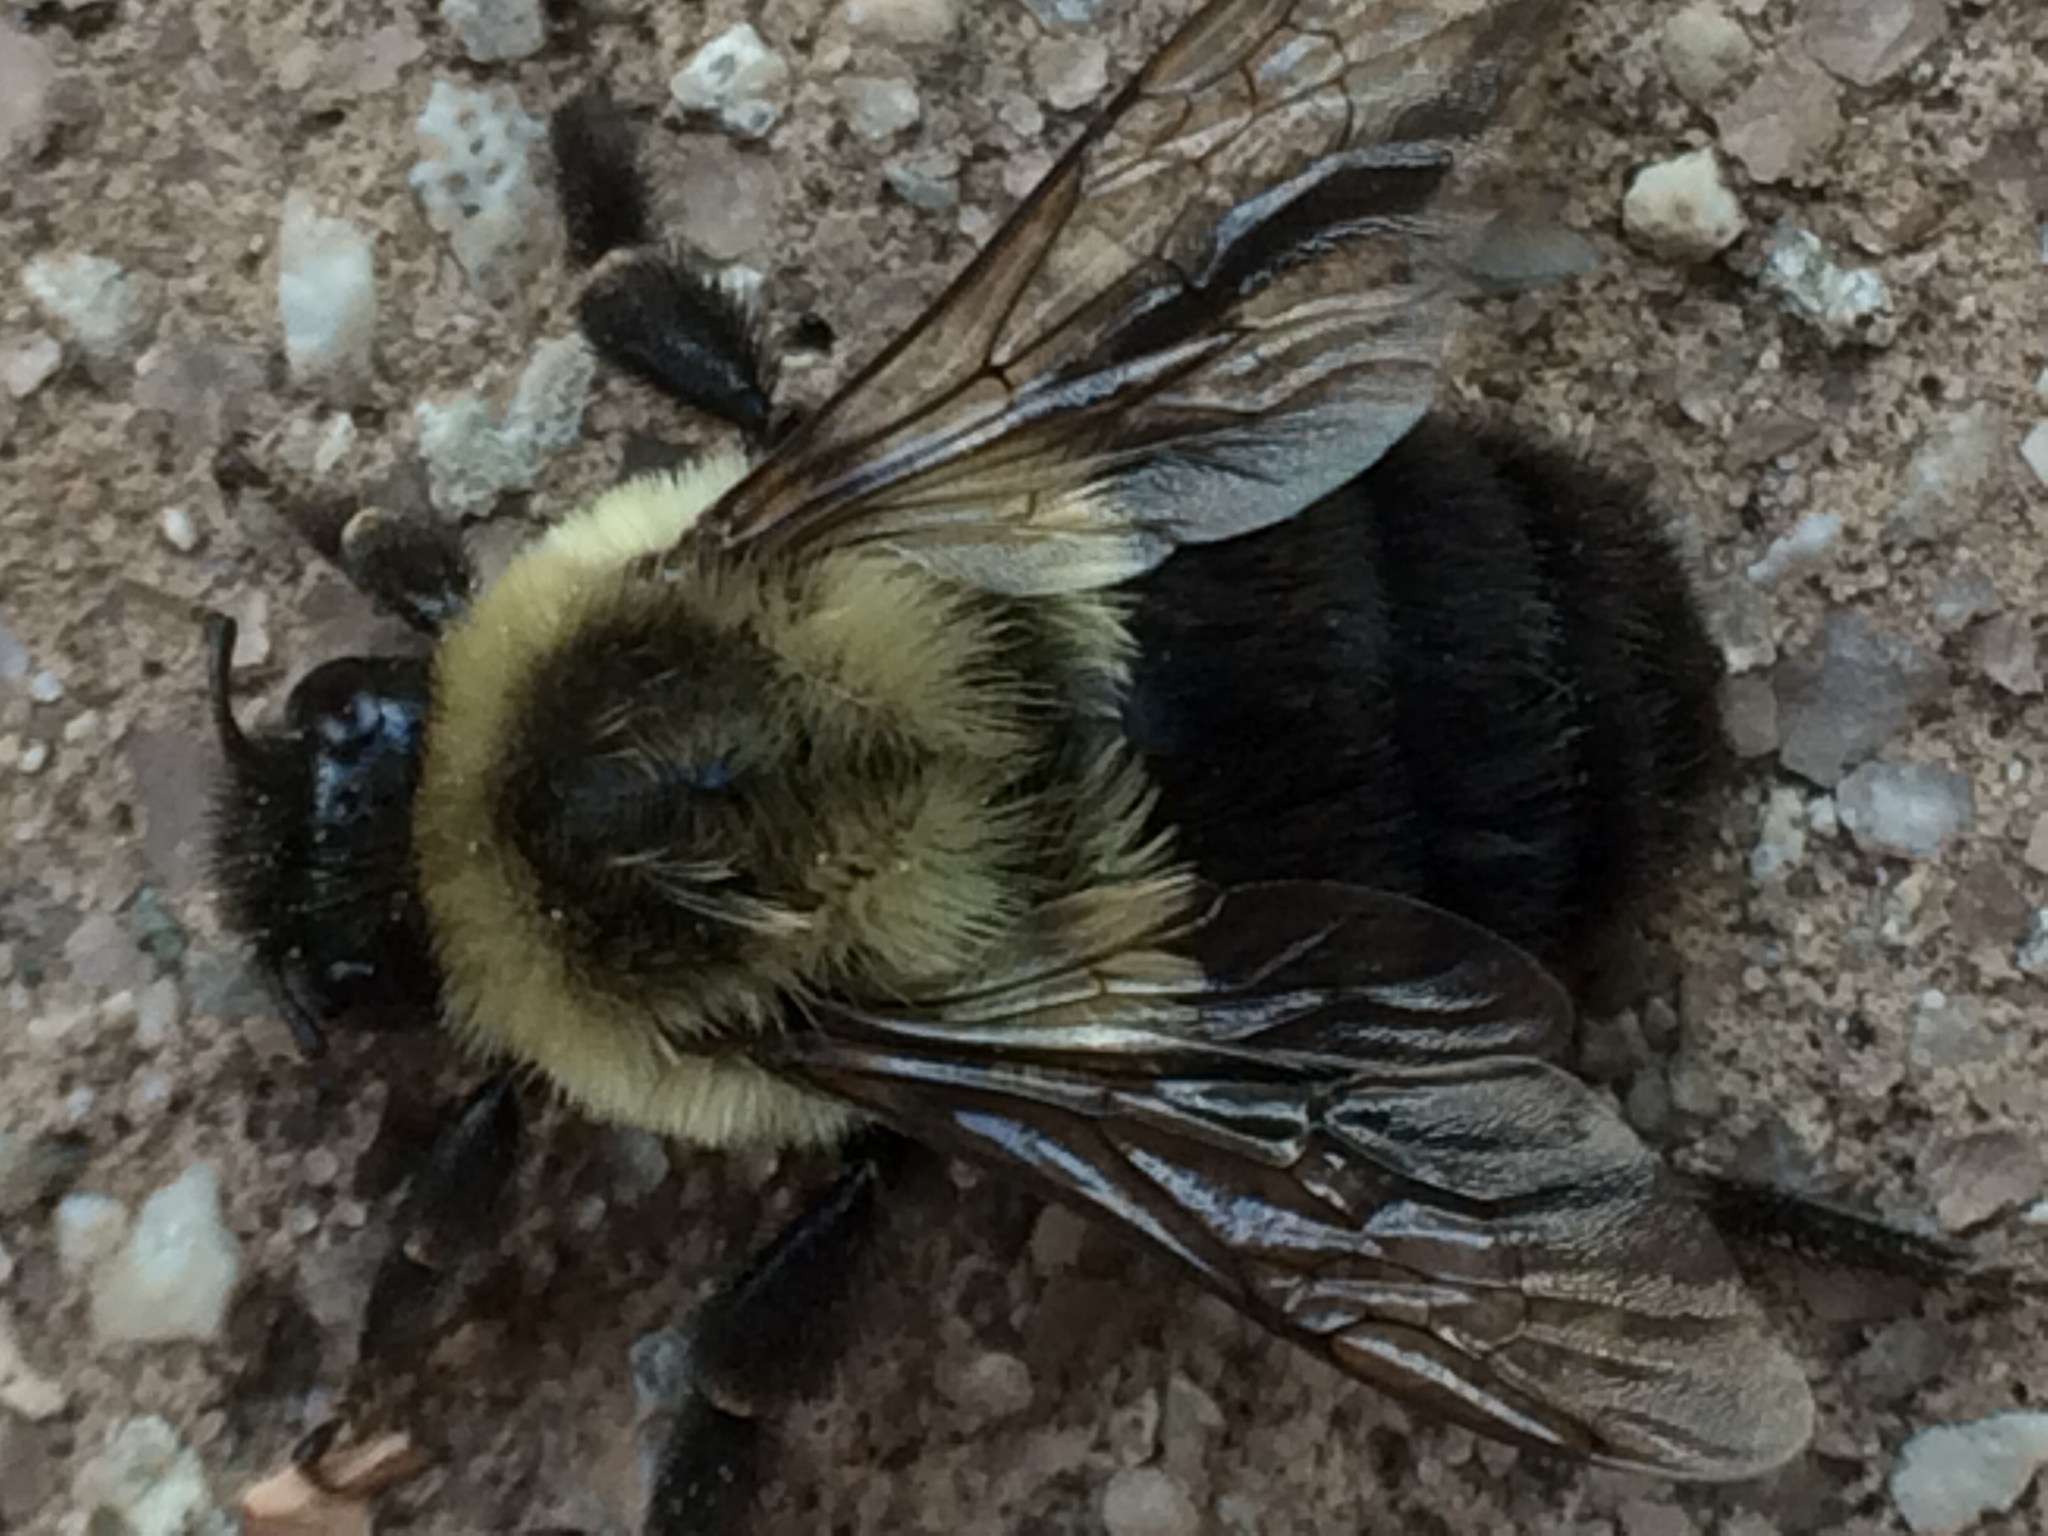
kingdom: Animalia
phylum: Arthropoda
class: Insecta
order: Hymenoptera
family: Apidae
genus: Bombus
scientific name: Bombus impatiens
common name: Common eastern bumble bee
